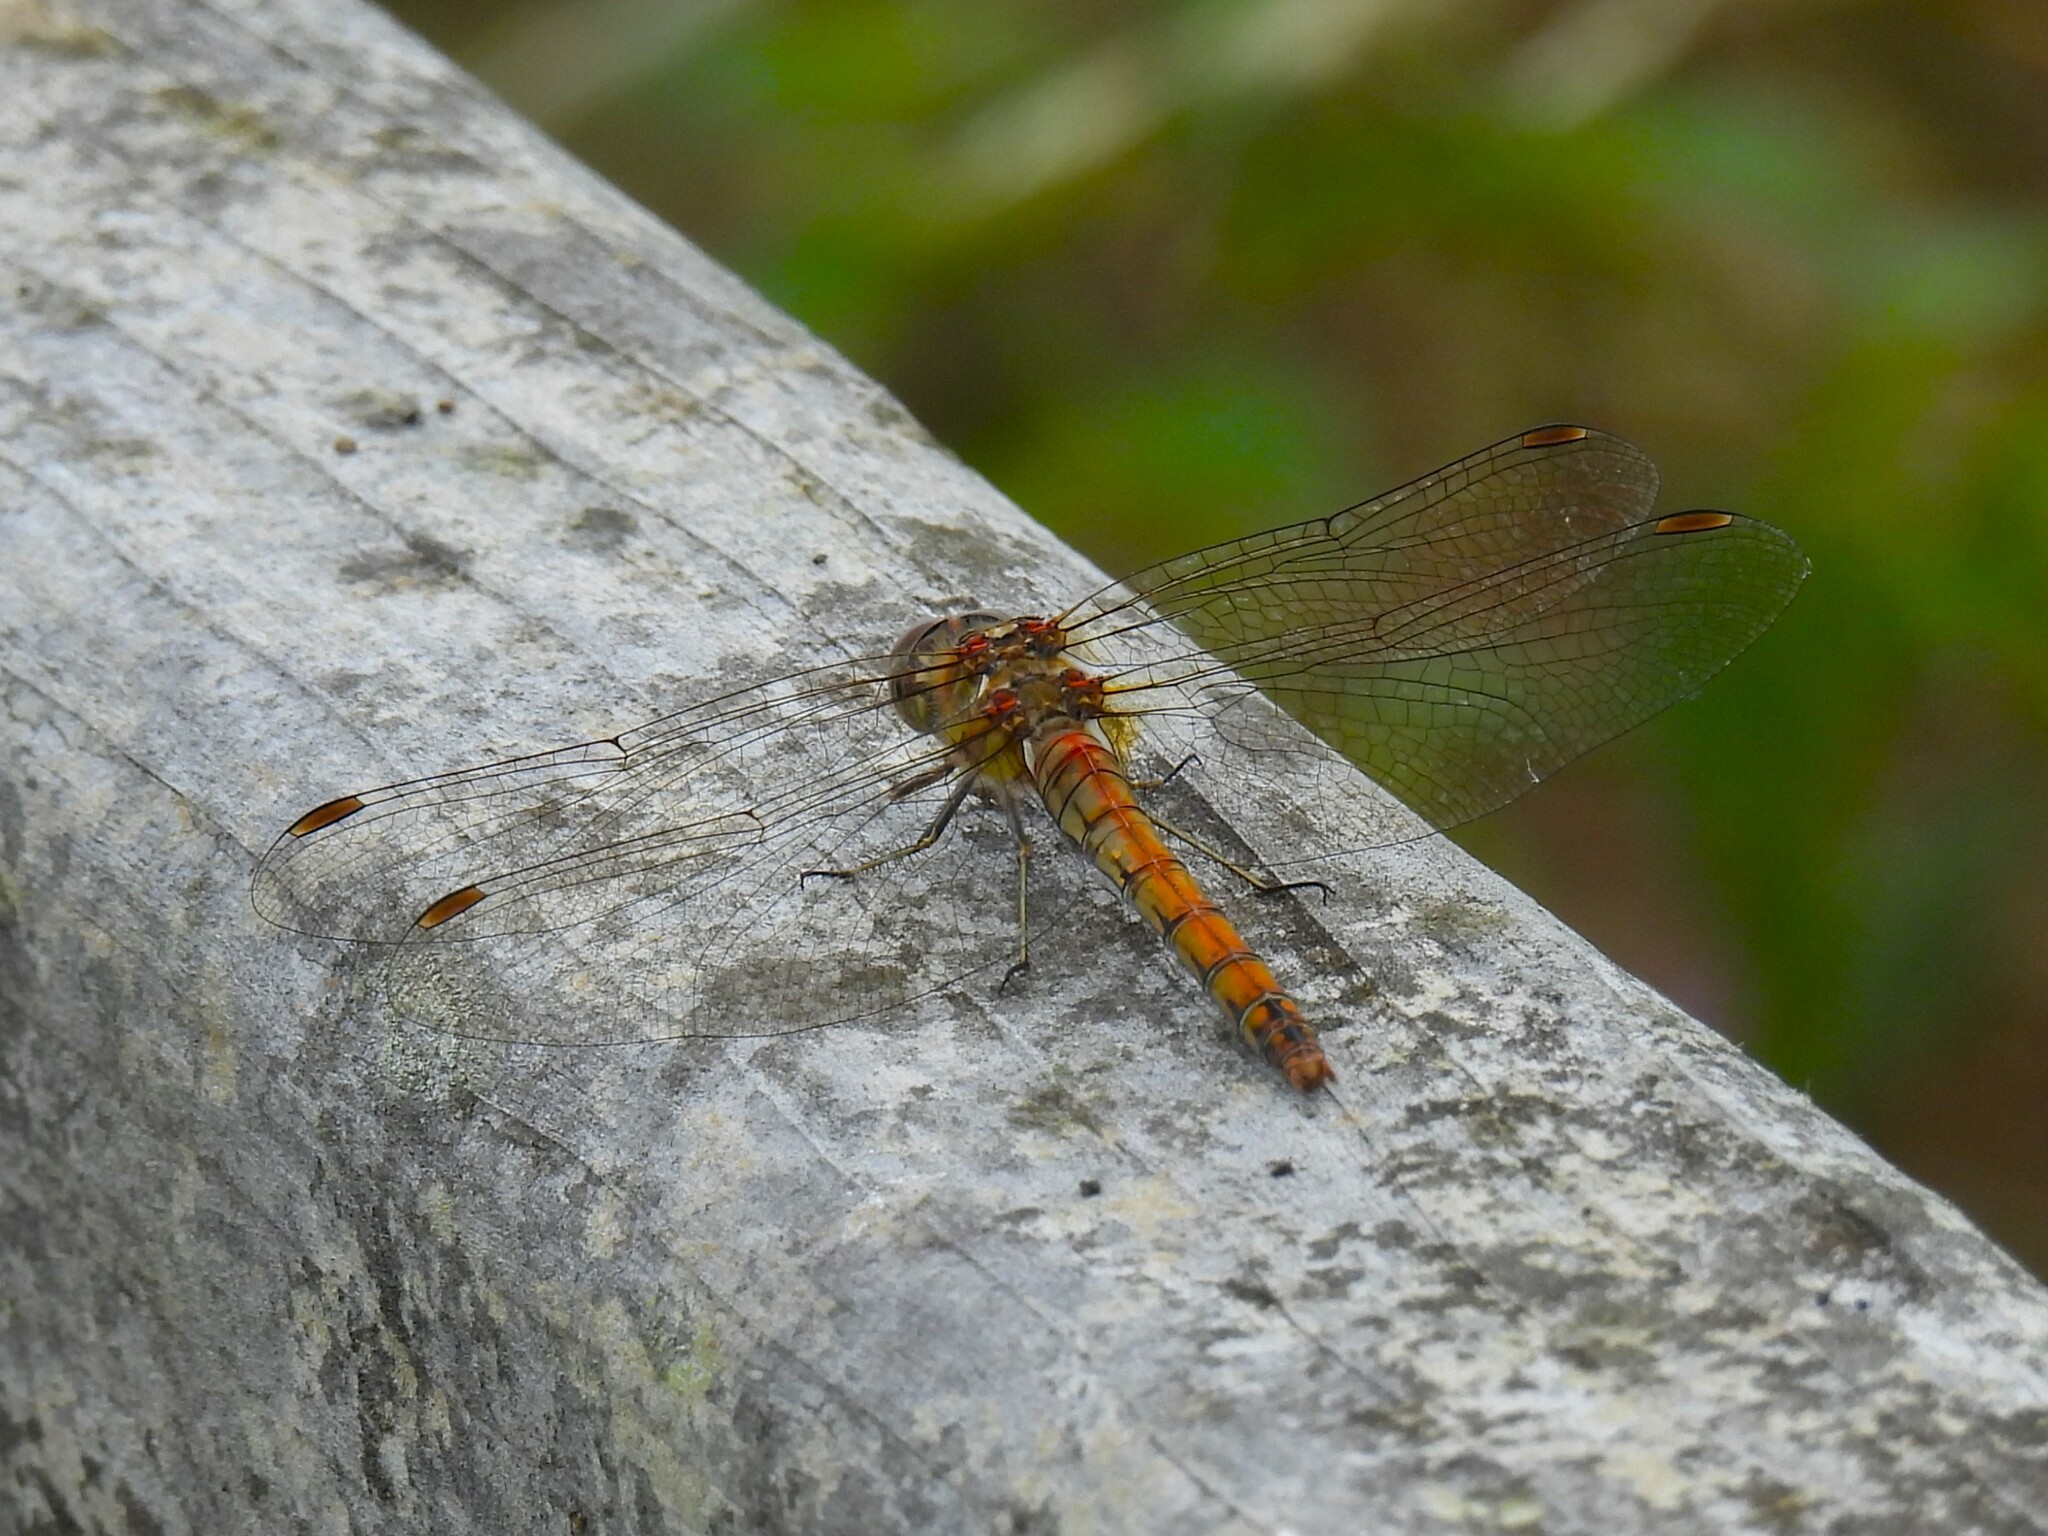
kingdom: Animalia
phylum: Arthropoda
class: Insecta
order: Odonata
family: Libellulidae
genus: Sympetrum
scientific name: Sympetrum striolatum
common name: Common darter
